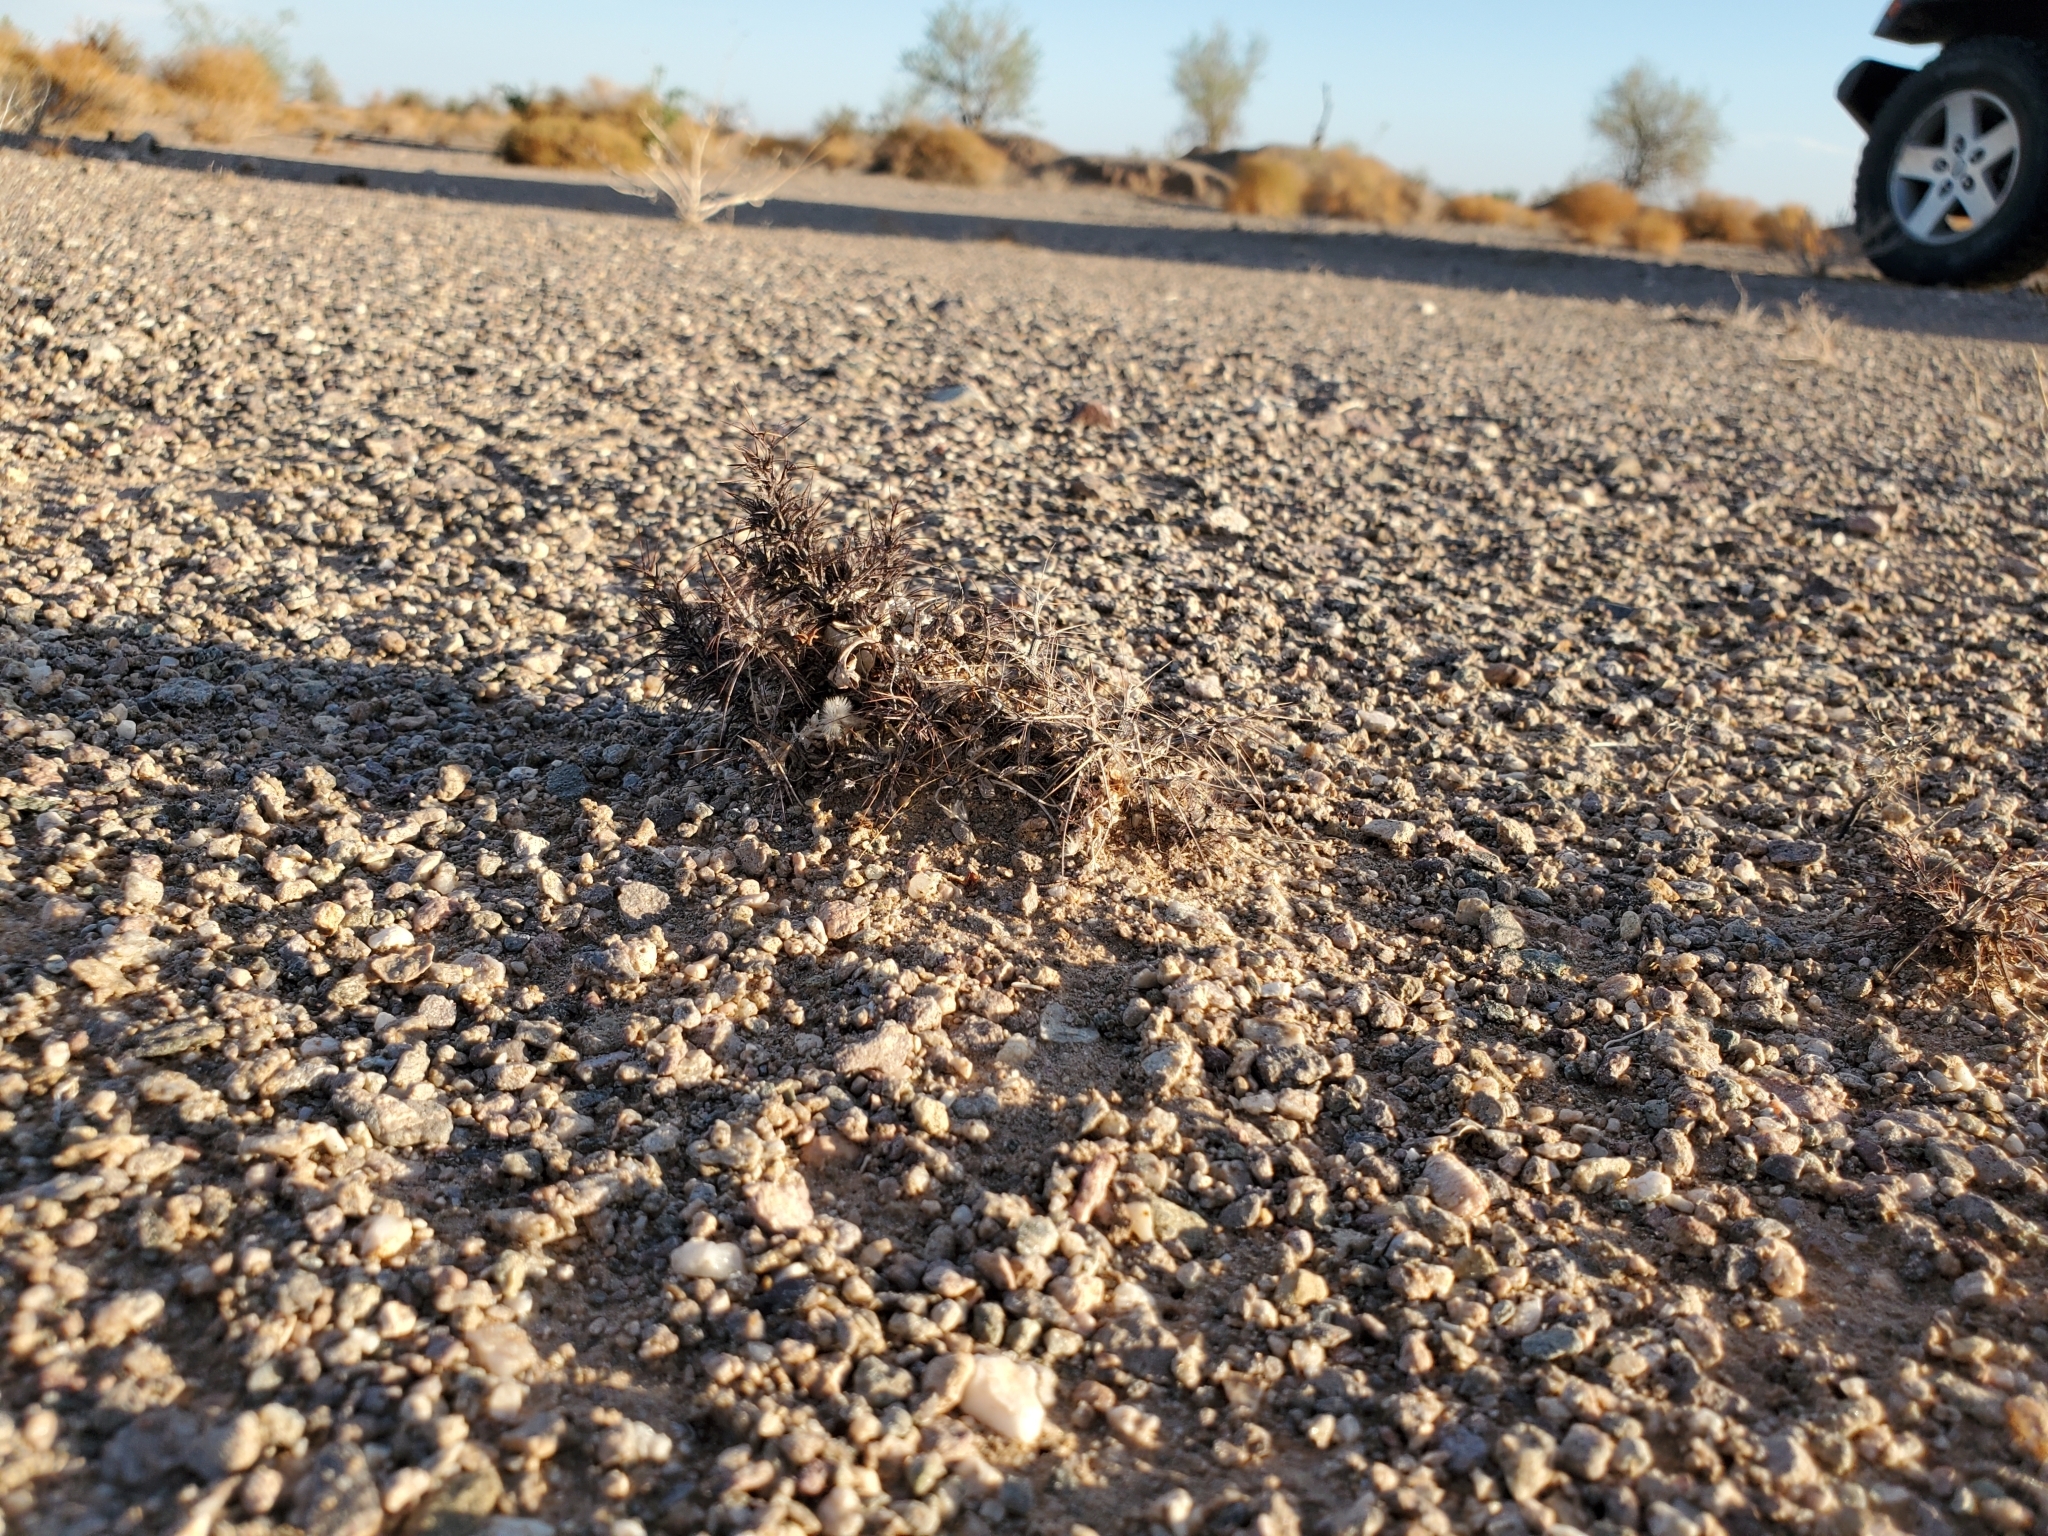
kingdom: Plantae
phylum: Tracheophyta
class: Magnoliopsida
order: Caryophyllales
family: Polygonaceae
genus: Chorizanthe
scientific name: Chorizanthe rigida
